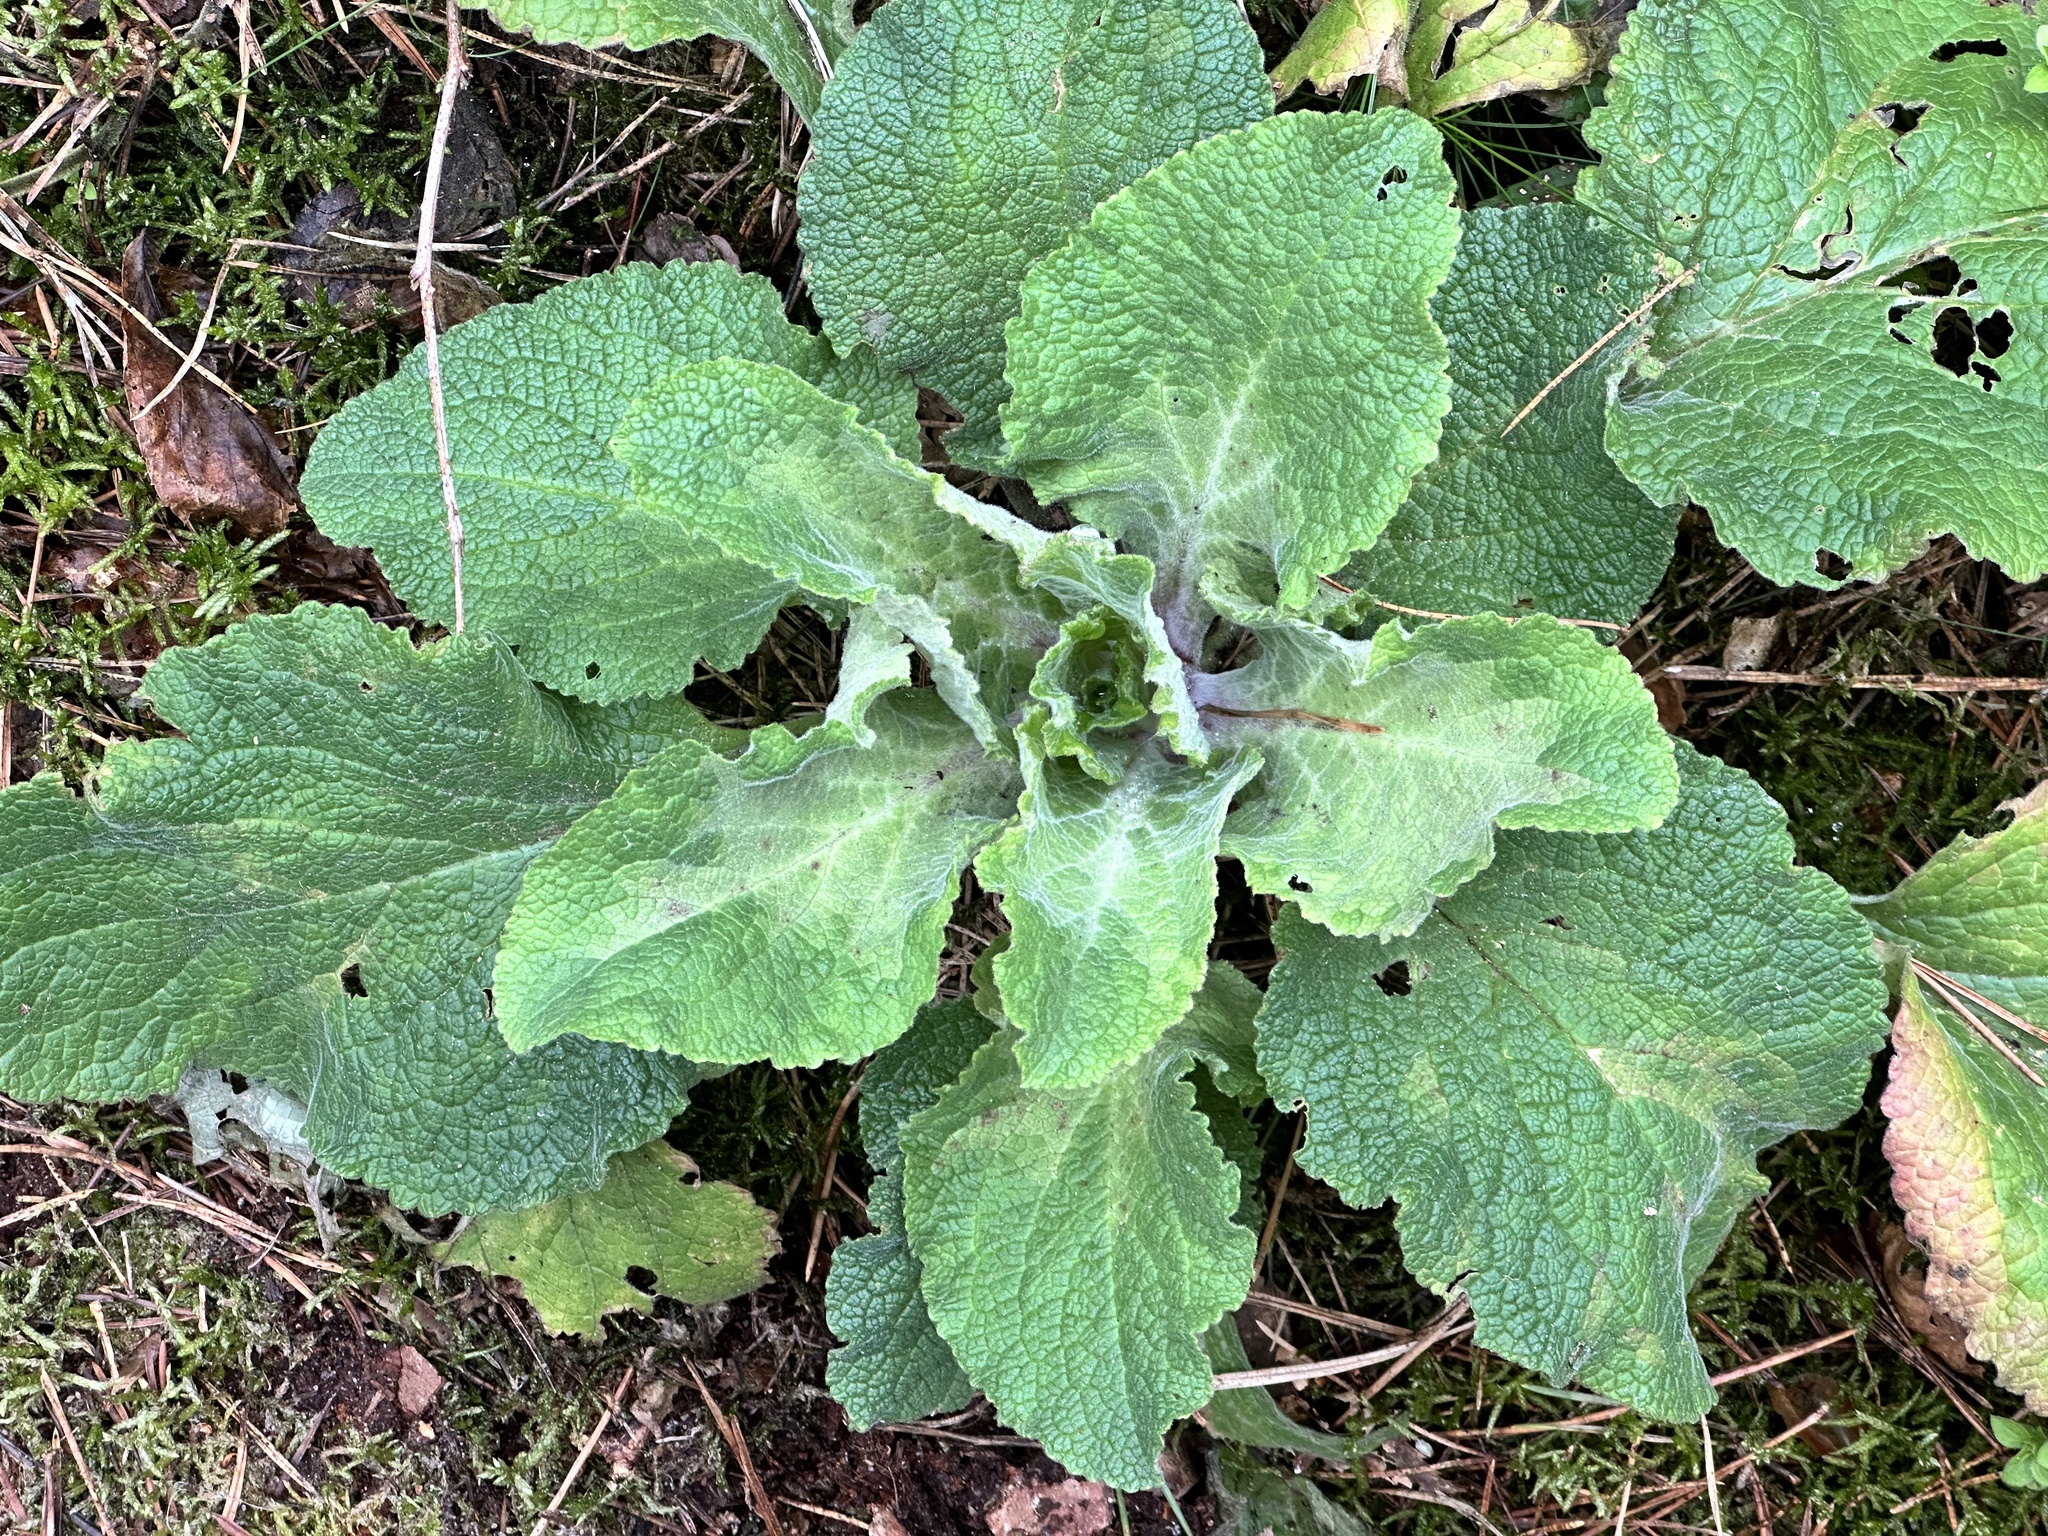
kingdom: Plantae
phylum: Tracheophyta
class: Magnoliopsida
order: Lamiales
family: Plantaginaceae
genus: Digitalis
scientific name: Digitalis purpurea
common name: Foxglove
